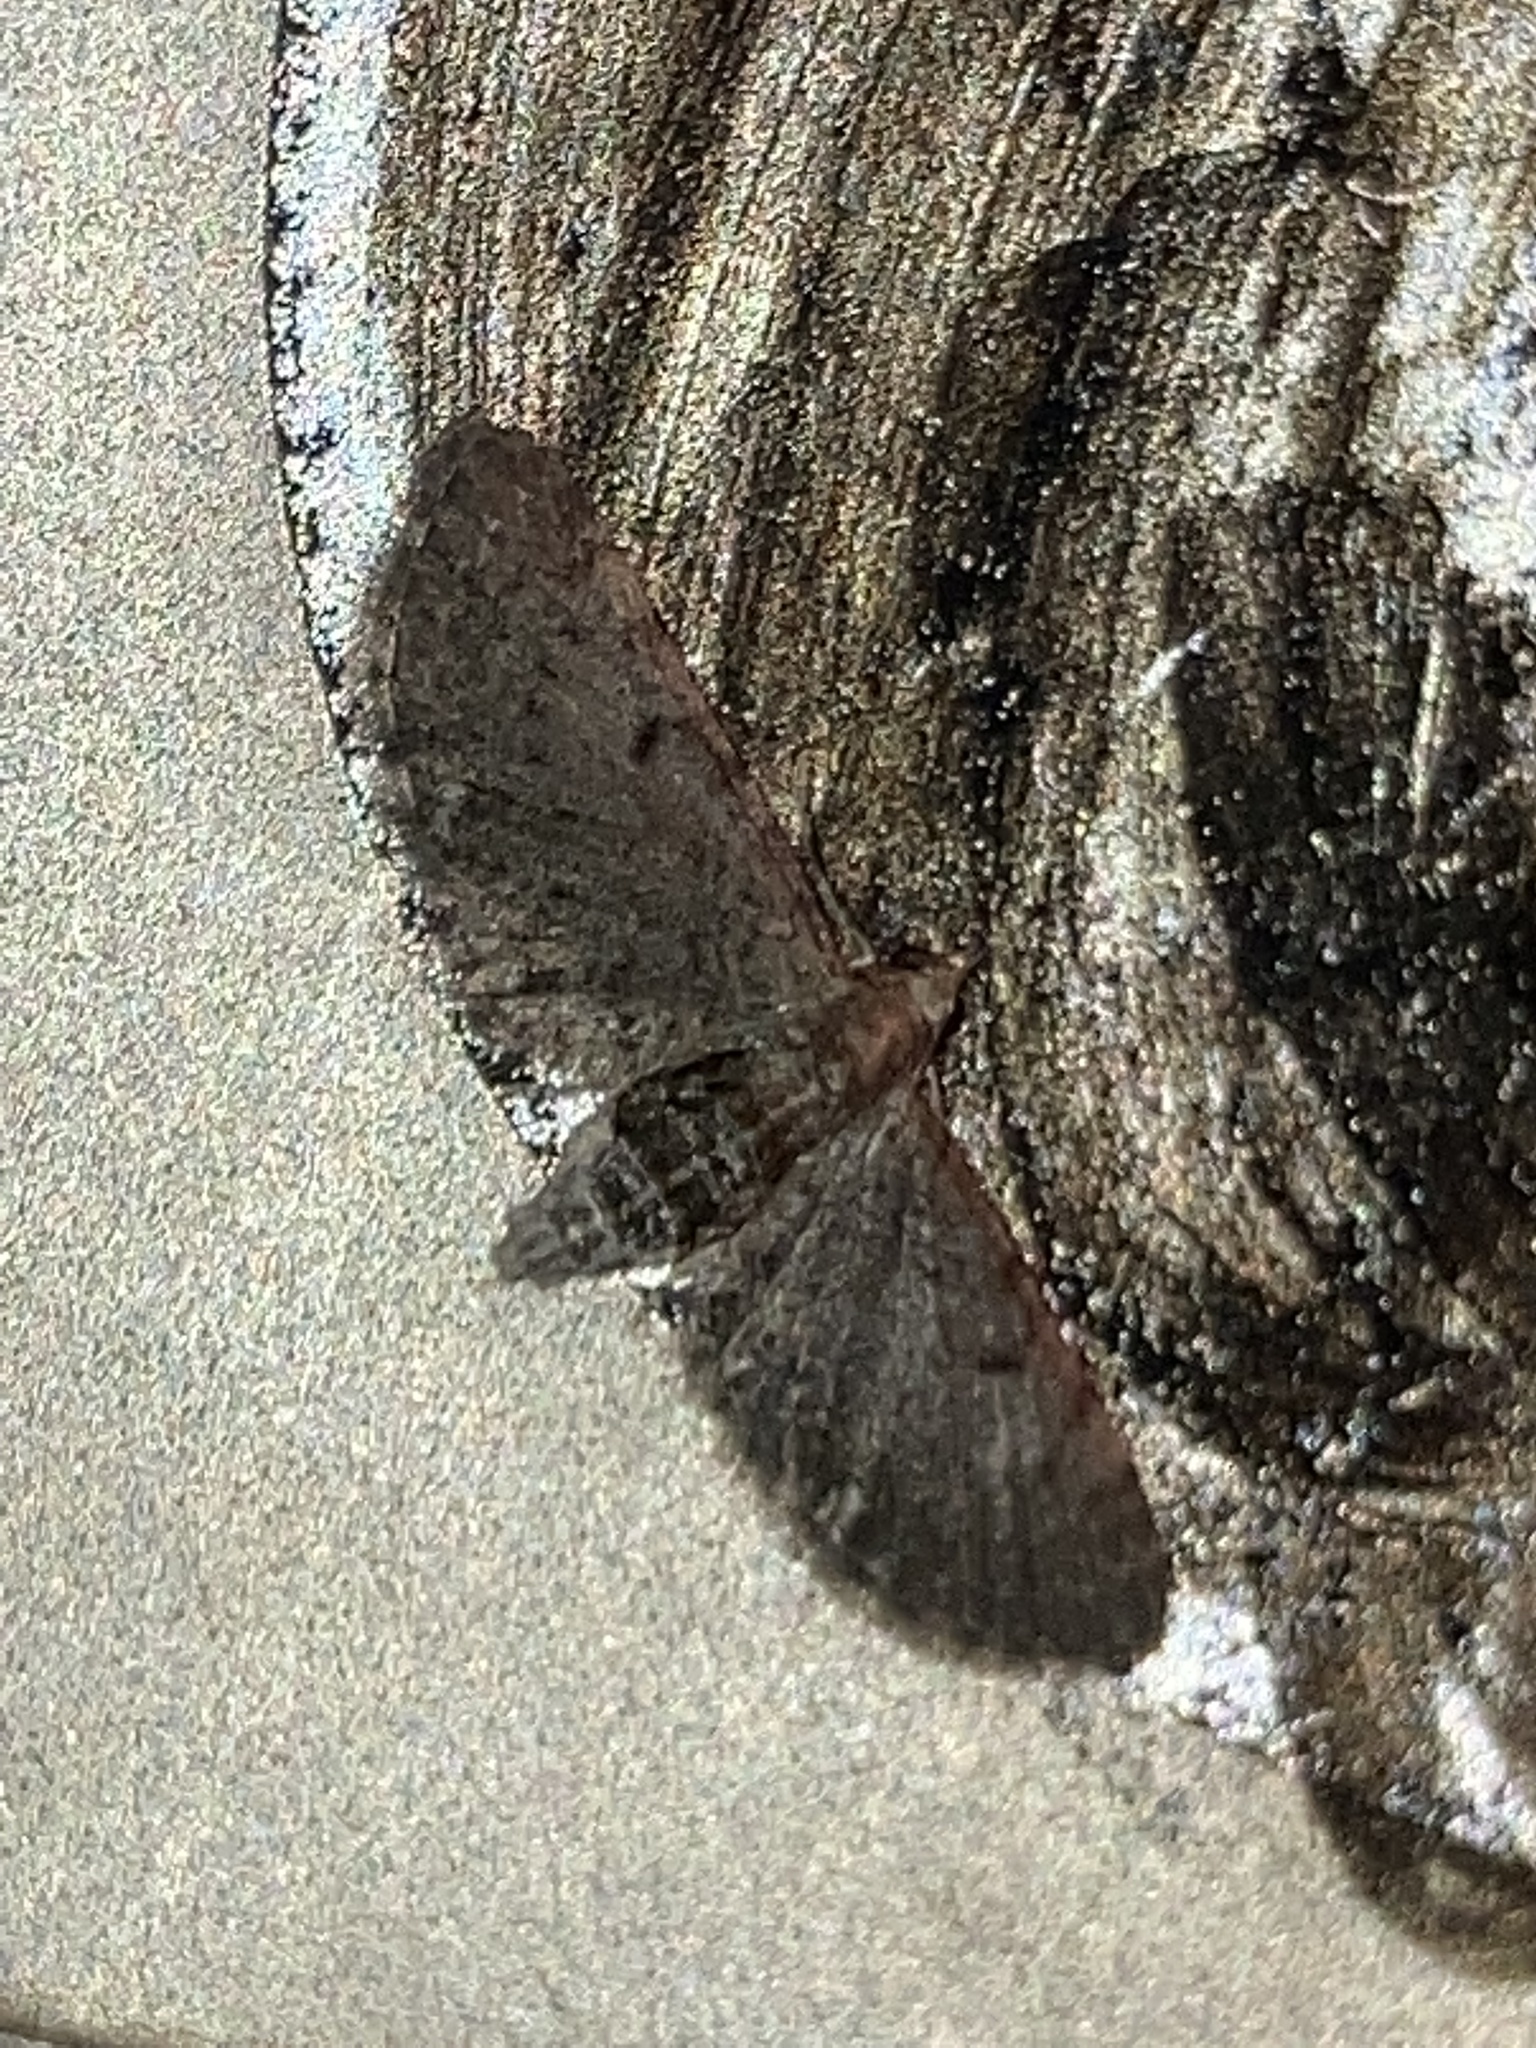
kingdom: Animalia
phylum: Arthropoda
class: Insecta
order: Lepidoptera
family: Geometridae
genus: Eupithecia
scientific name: Eupithecia miserulata
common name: Common eupithecia
